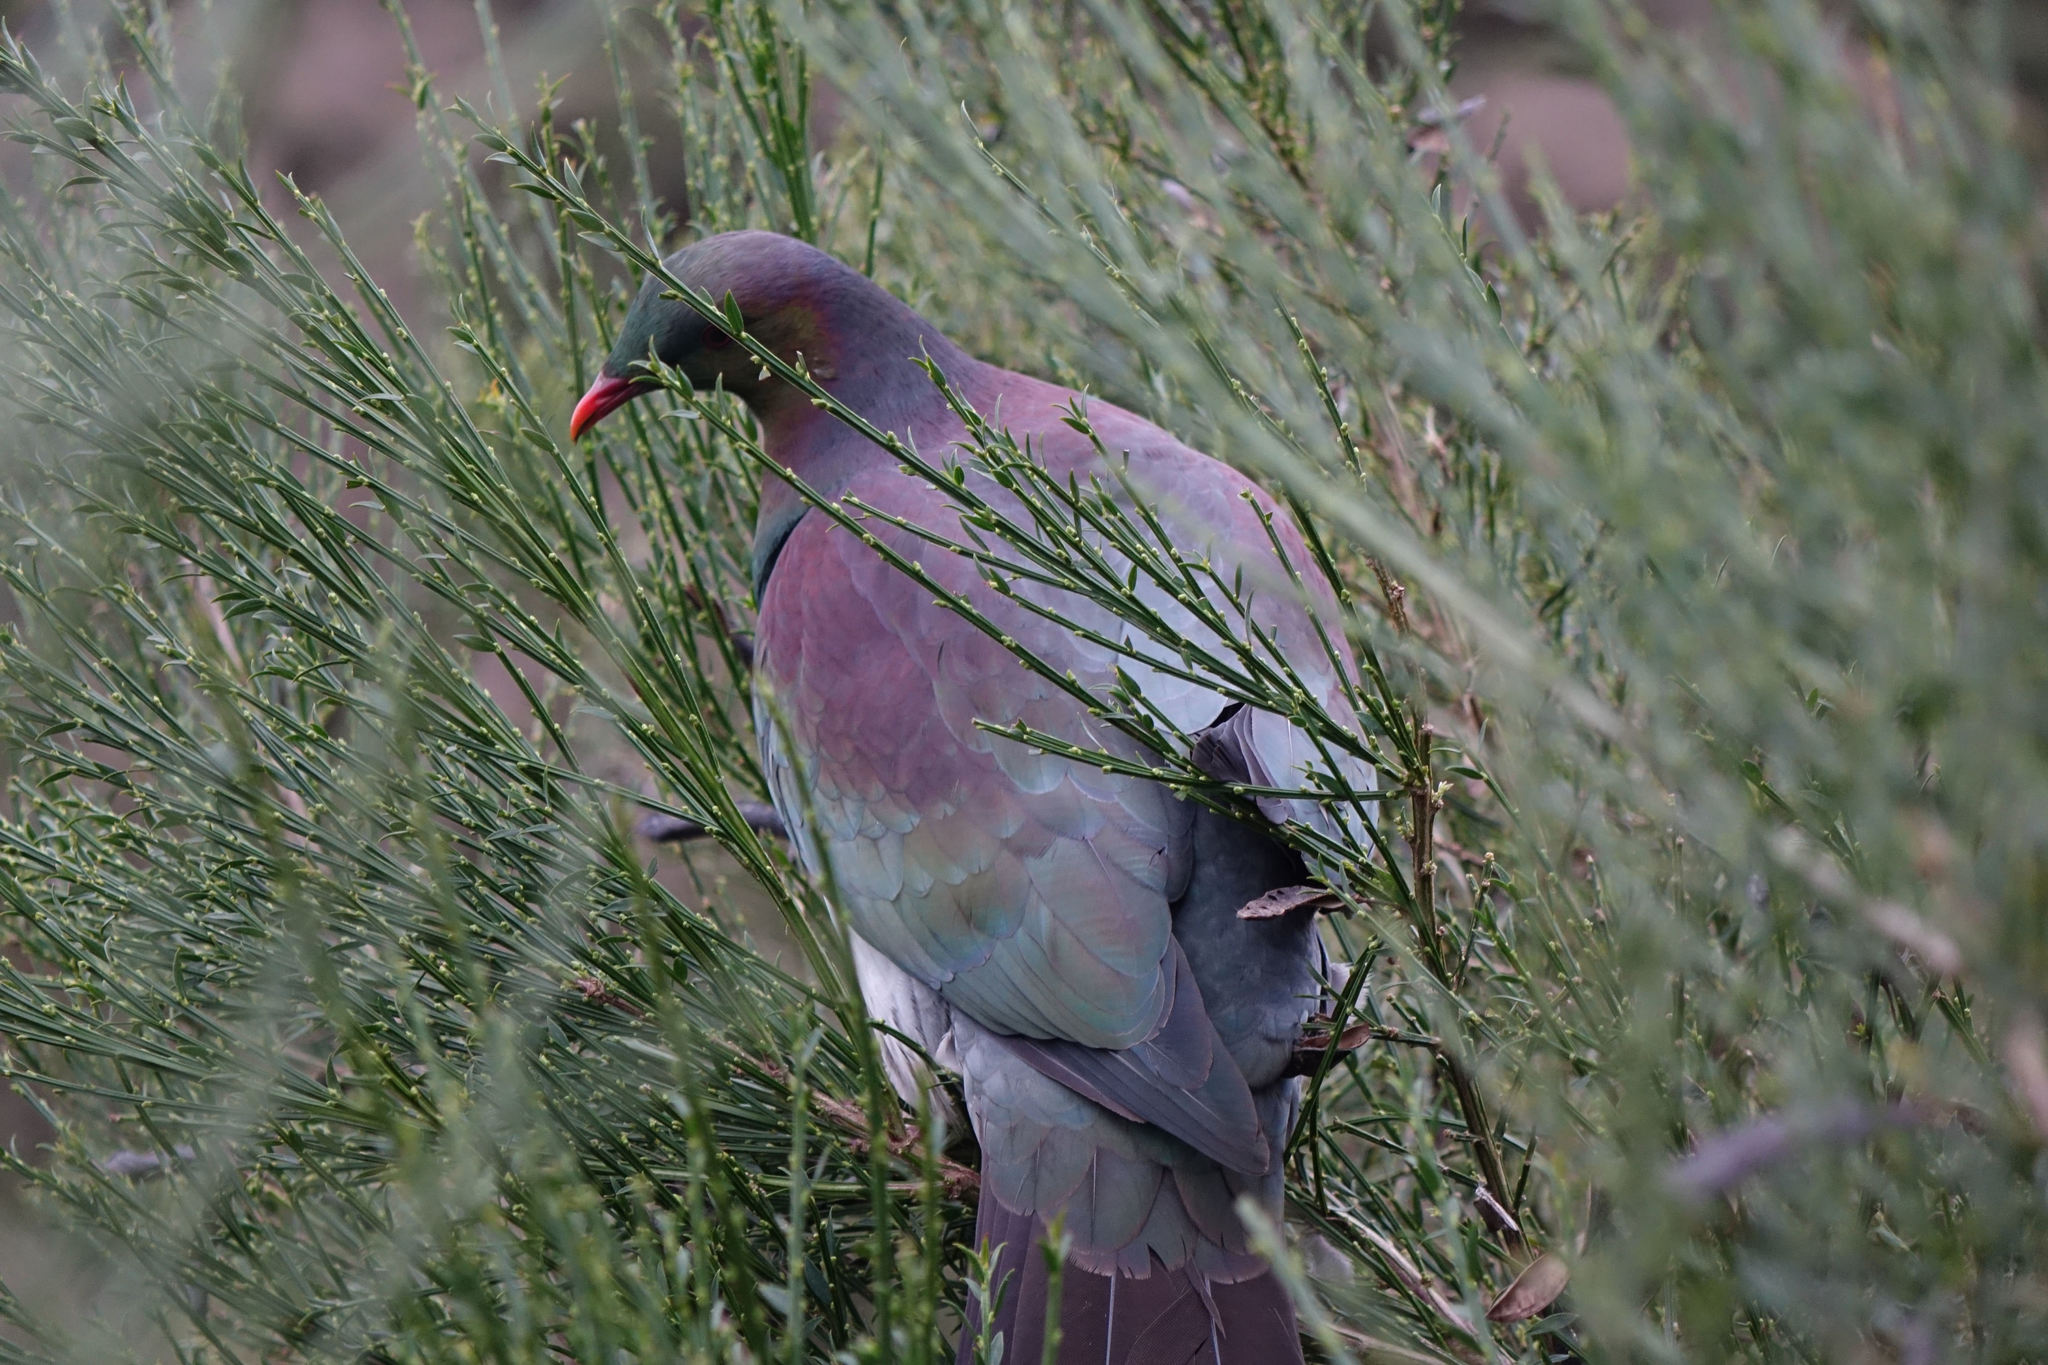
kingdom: Animalia
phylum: Chordata
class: Aves
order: Columbiformes
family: Columbidae
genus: Hemiphaga
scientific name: Hemiphaga novaeseelandiae
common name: New zealand pigeon
